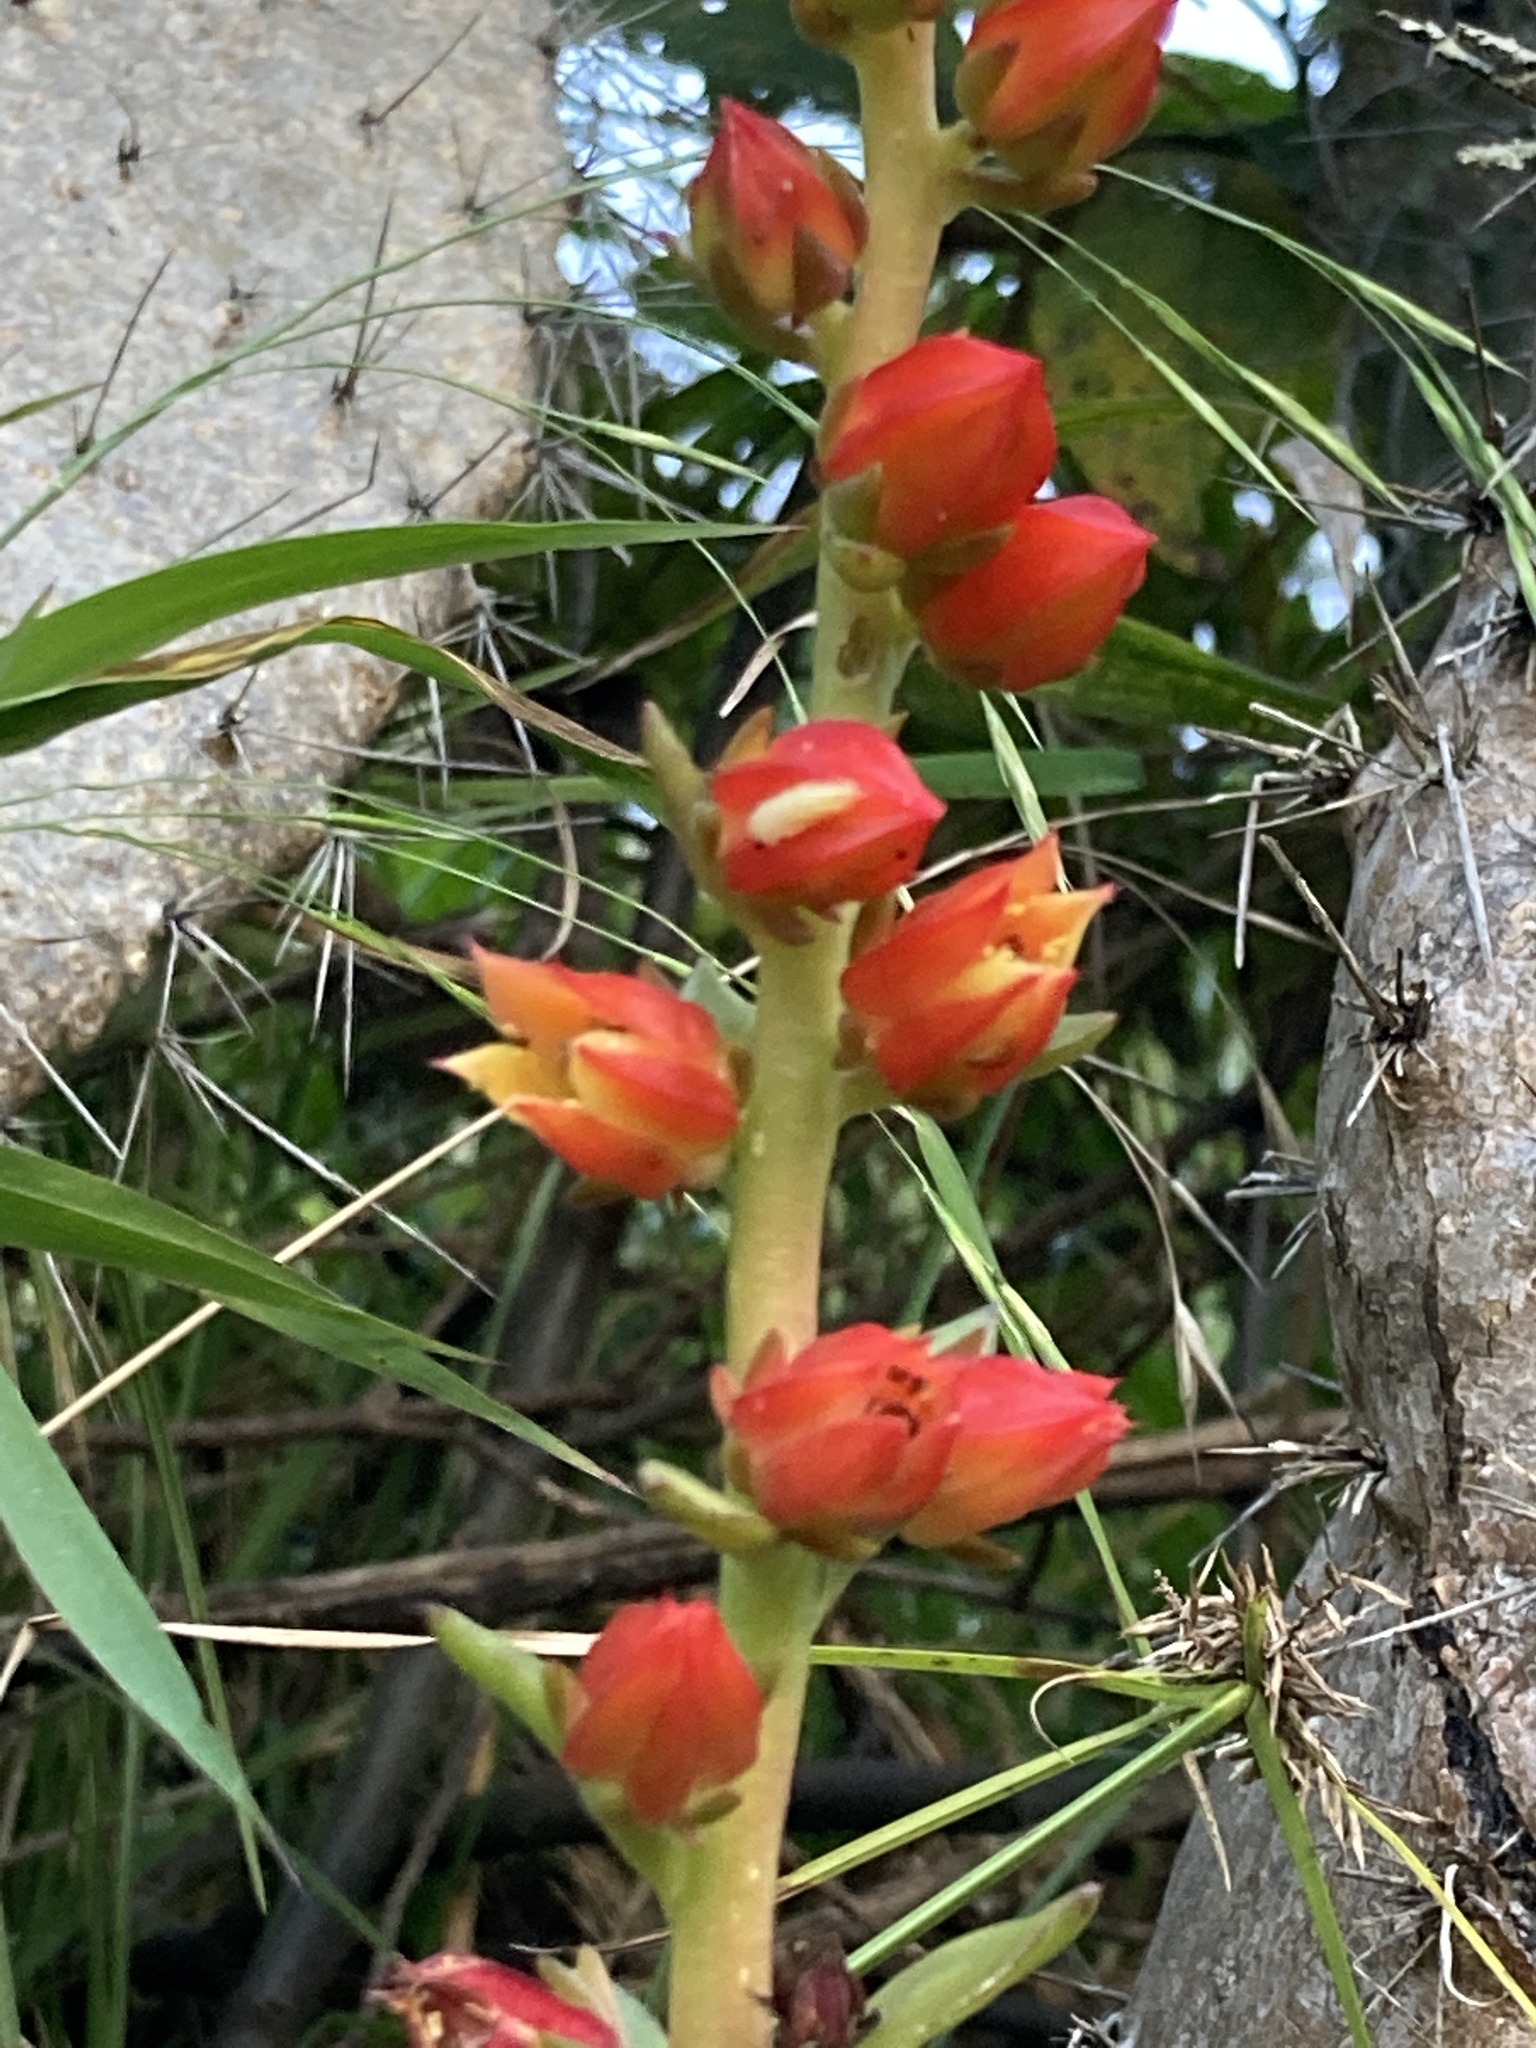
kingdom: Plantae
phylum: Tracheophyta
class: Magnoliopsida
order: Saxifragales
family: Crassulaceae
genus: Echeveria
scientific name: Echeveria bicolor
